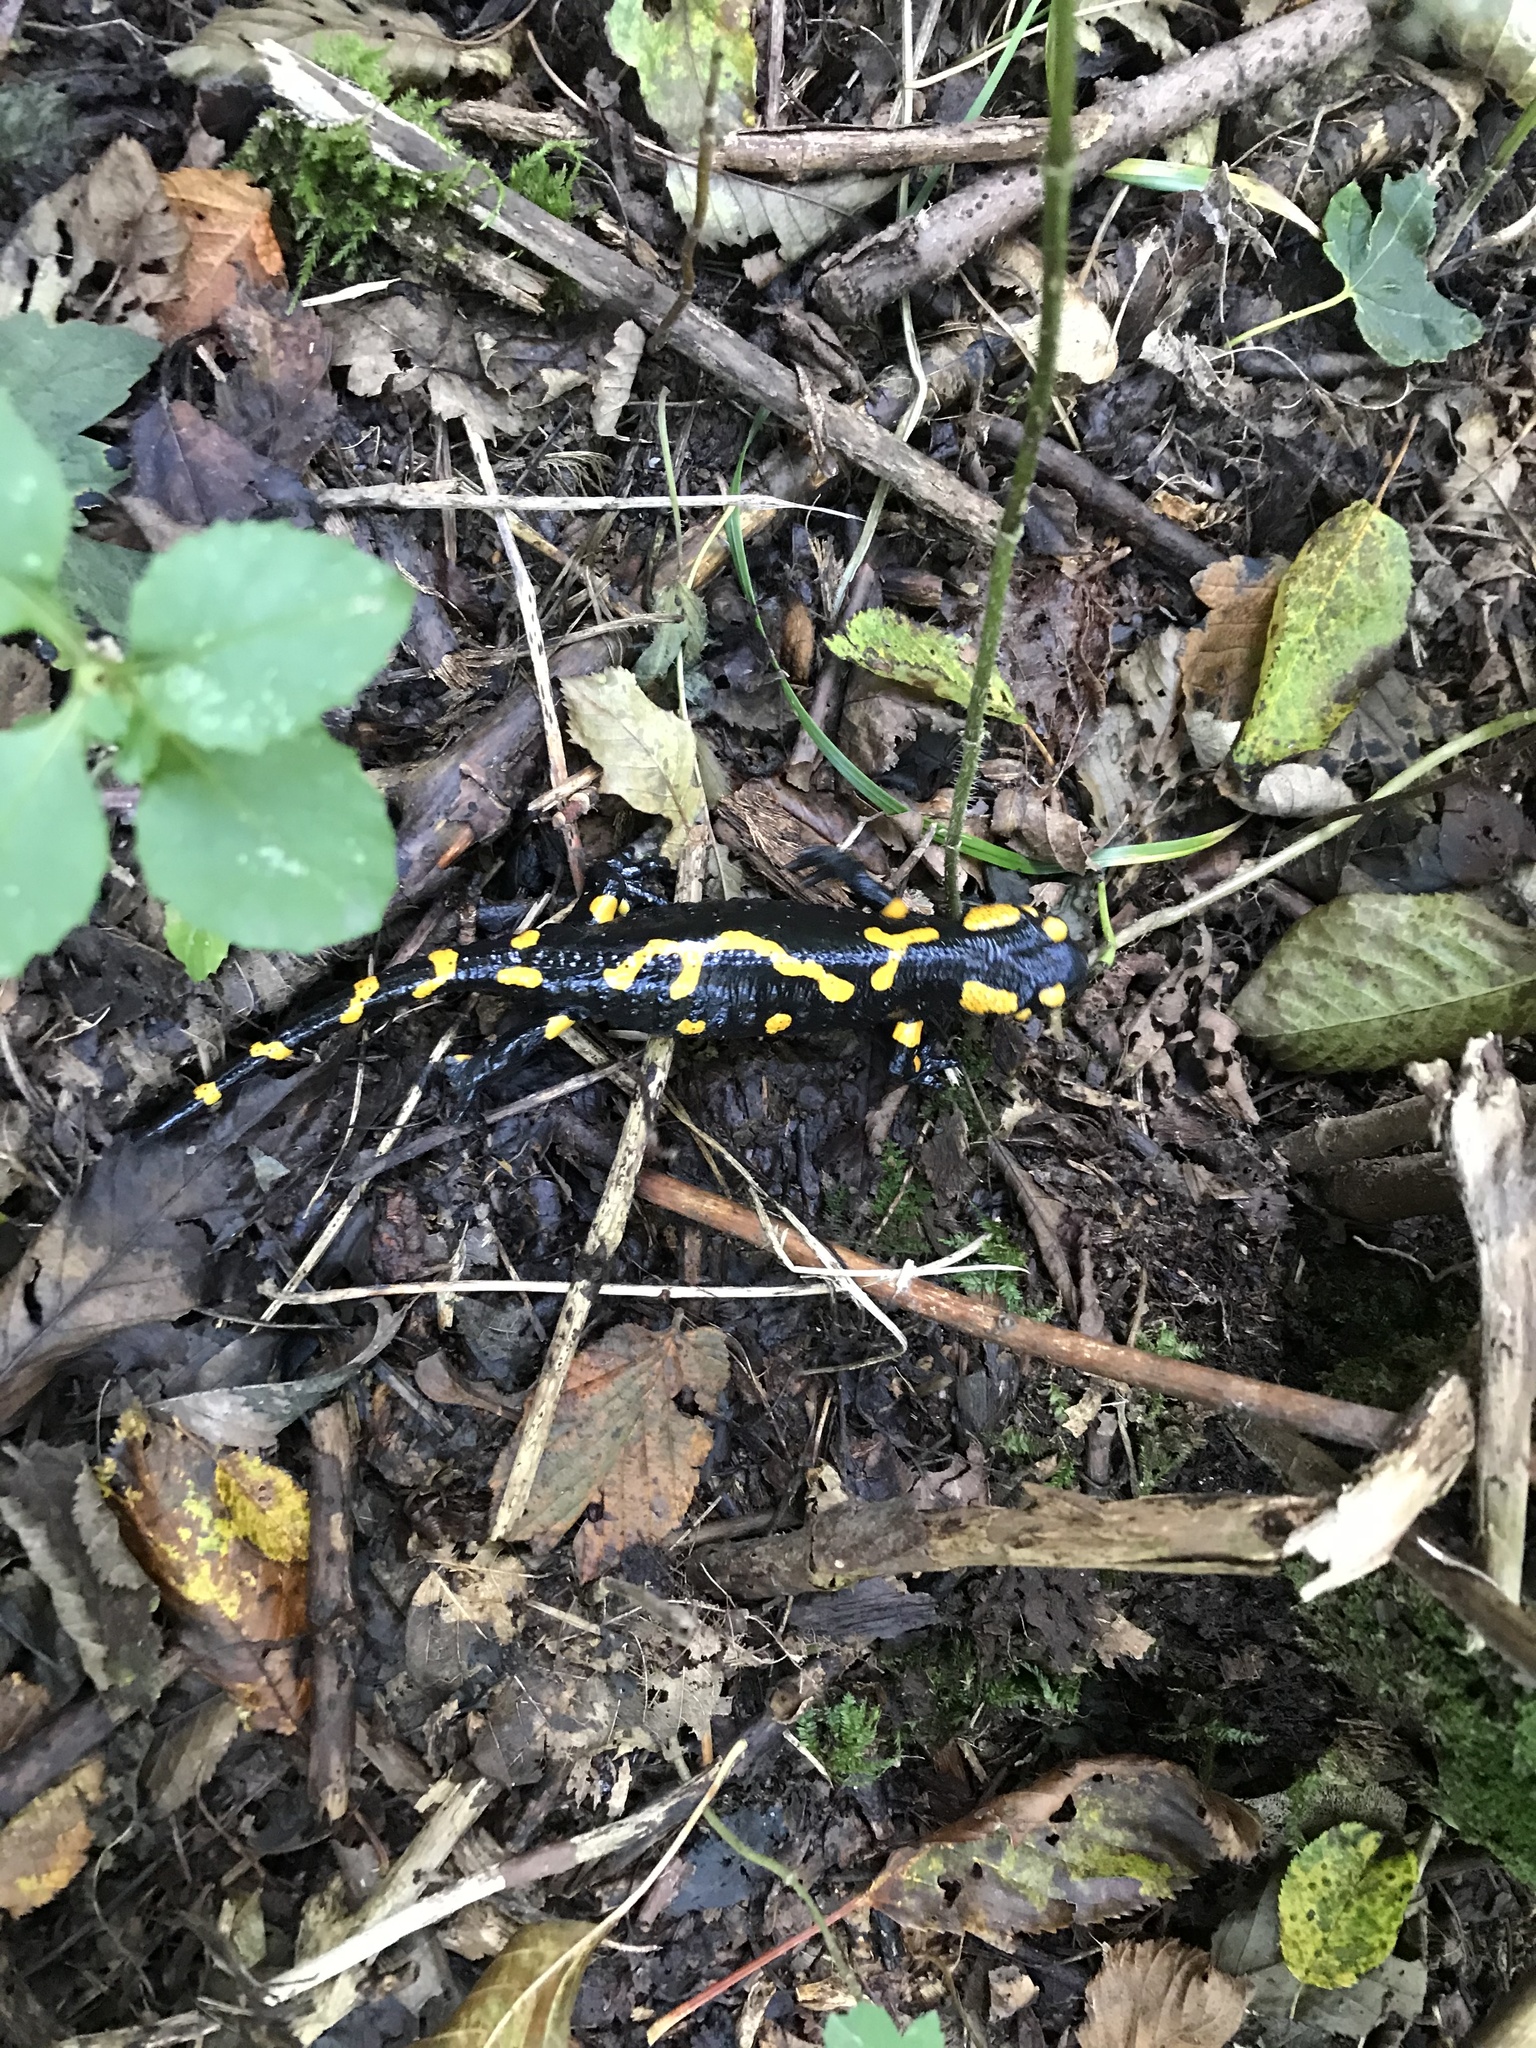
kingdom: Animalia
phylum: Chordata
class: Amphibia
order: Caudata
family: Salamandridae
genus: Salamandra
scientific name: Salamandra salamandra
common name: Fire salamander
